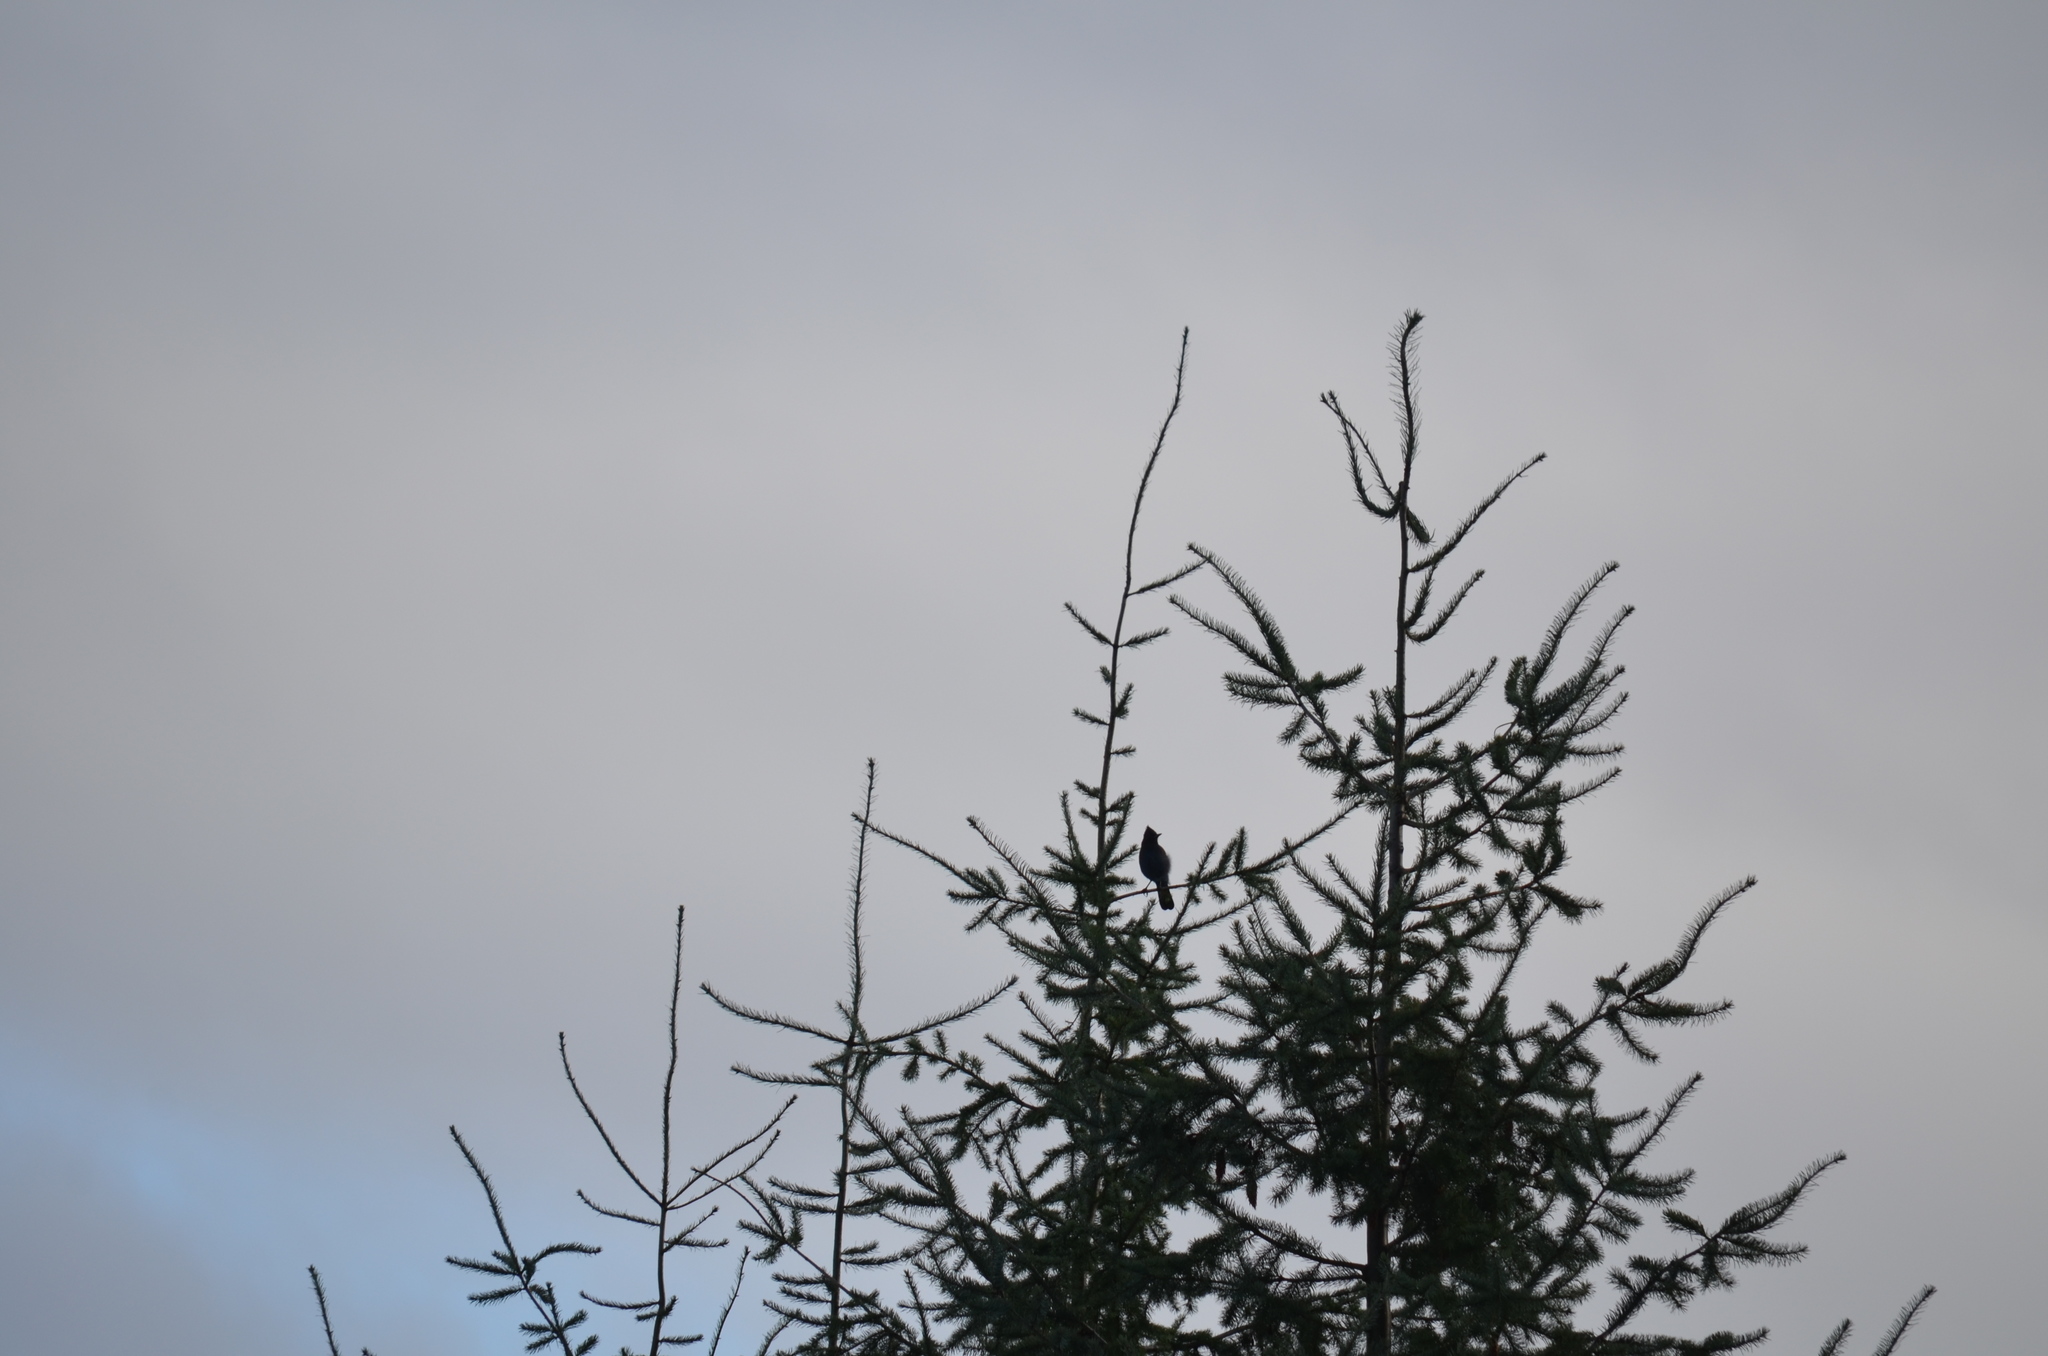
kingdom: Animalia
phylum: Chordata
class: Aves
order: Passeriformes
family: Corvidae
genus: Cyanocitta
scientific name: Cyanocitta stelleri
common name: Steller's jay
